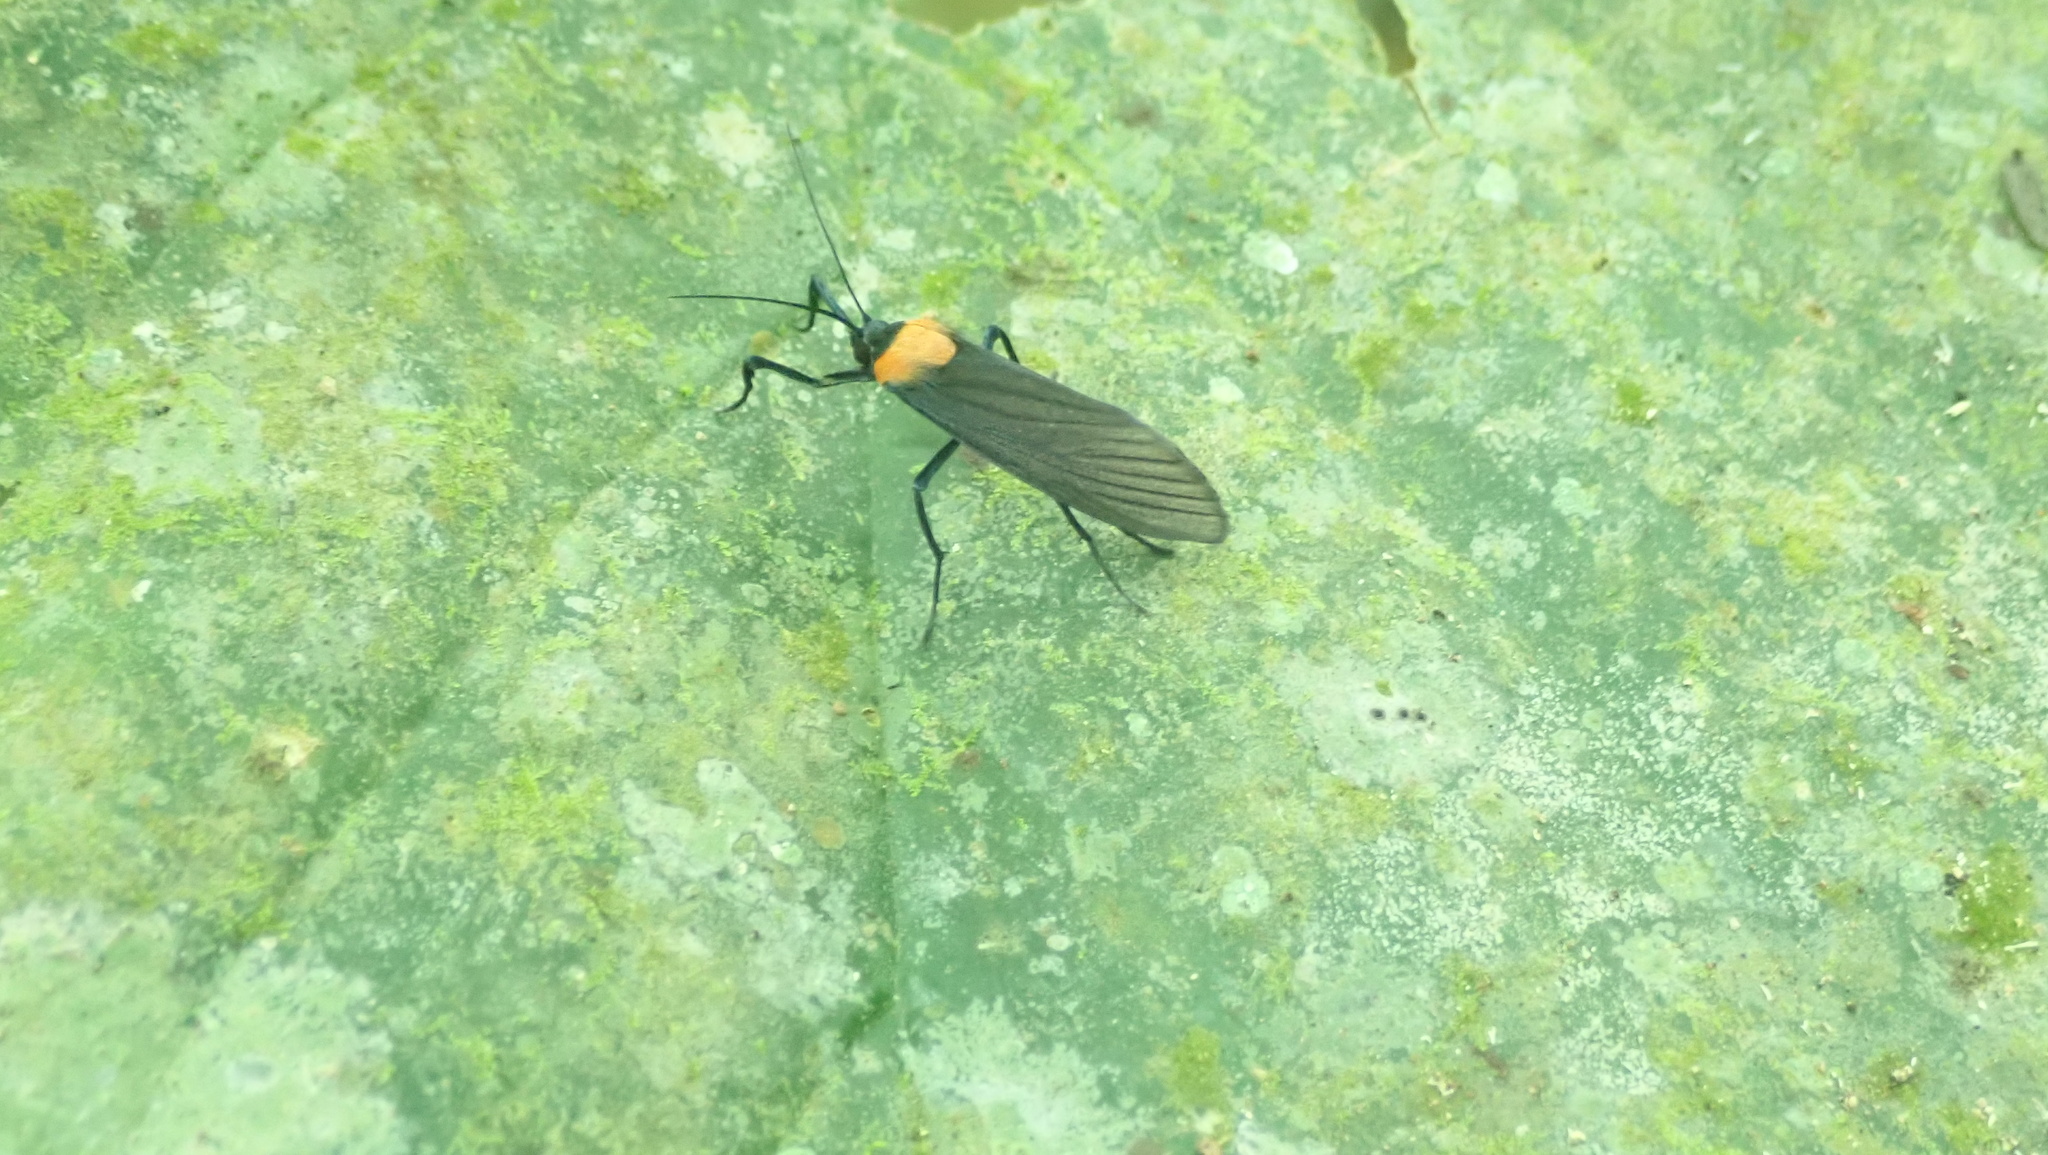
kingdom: Animalia
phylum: Arthropoda
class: Insecta
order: Lepidoptera
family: Erebidae
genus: Balbura
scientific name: Balbura intervenata
